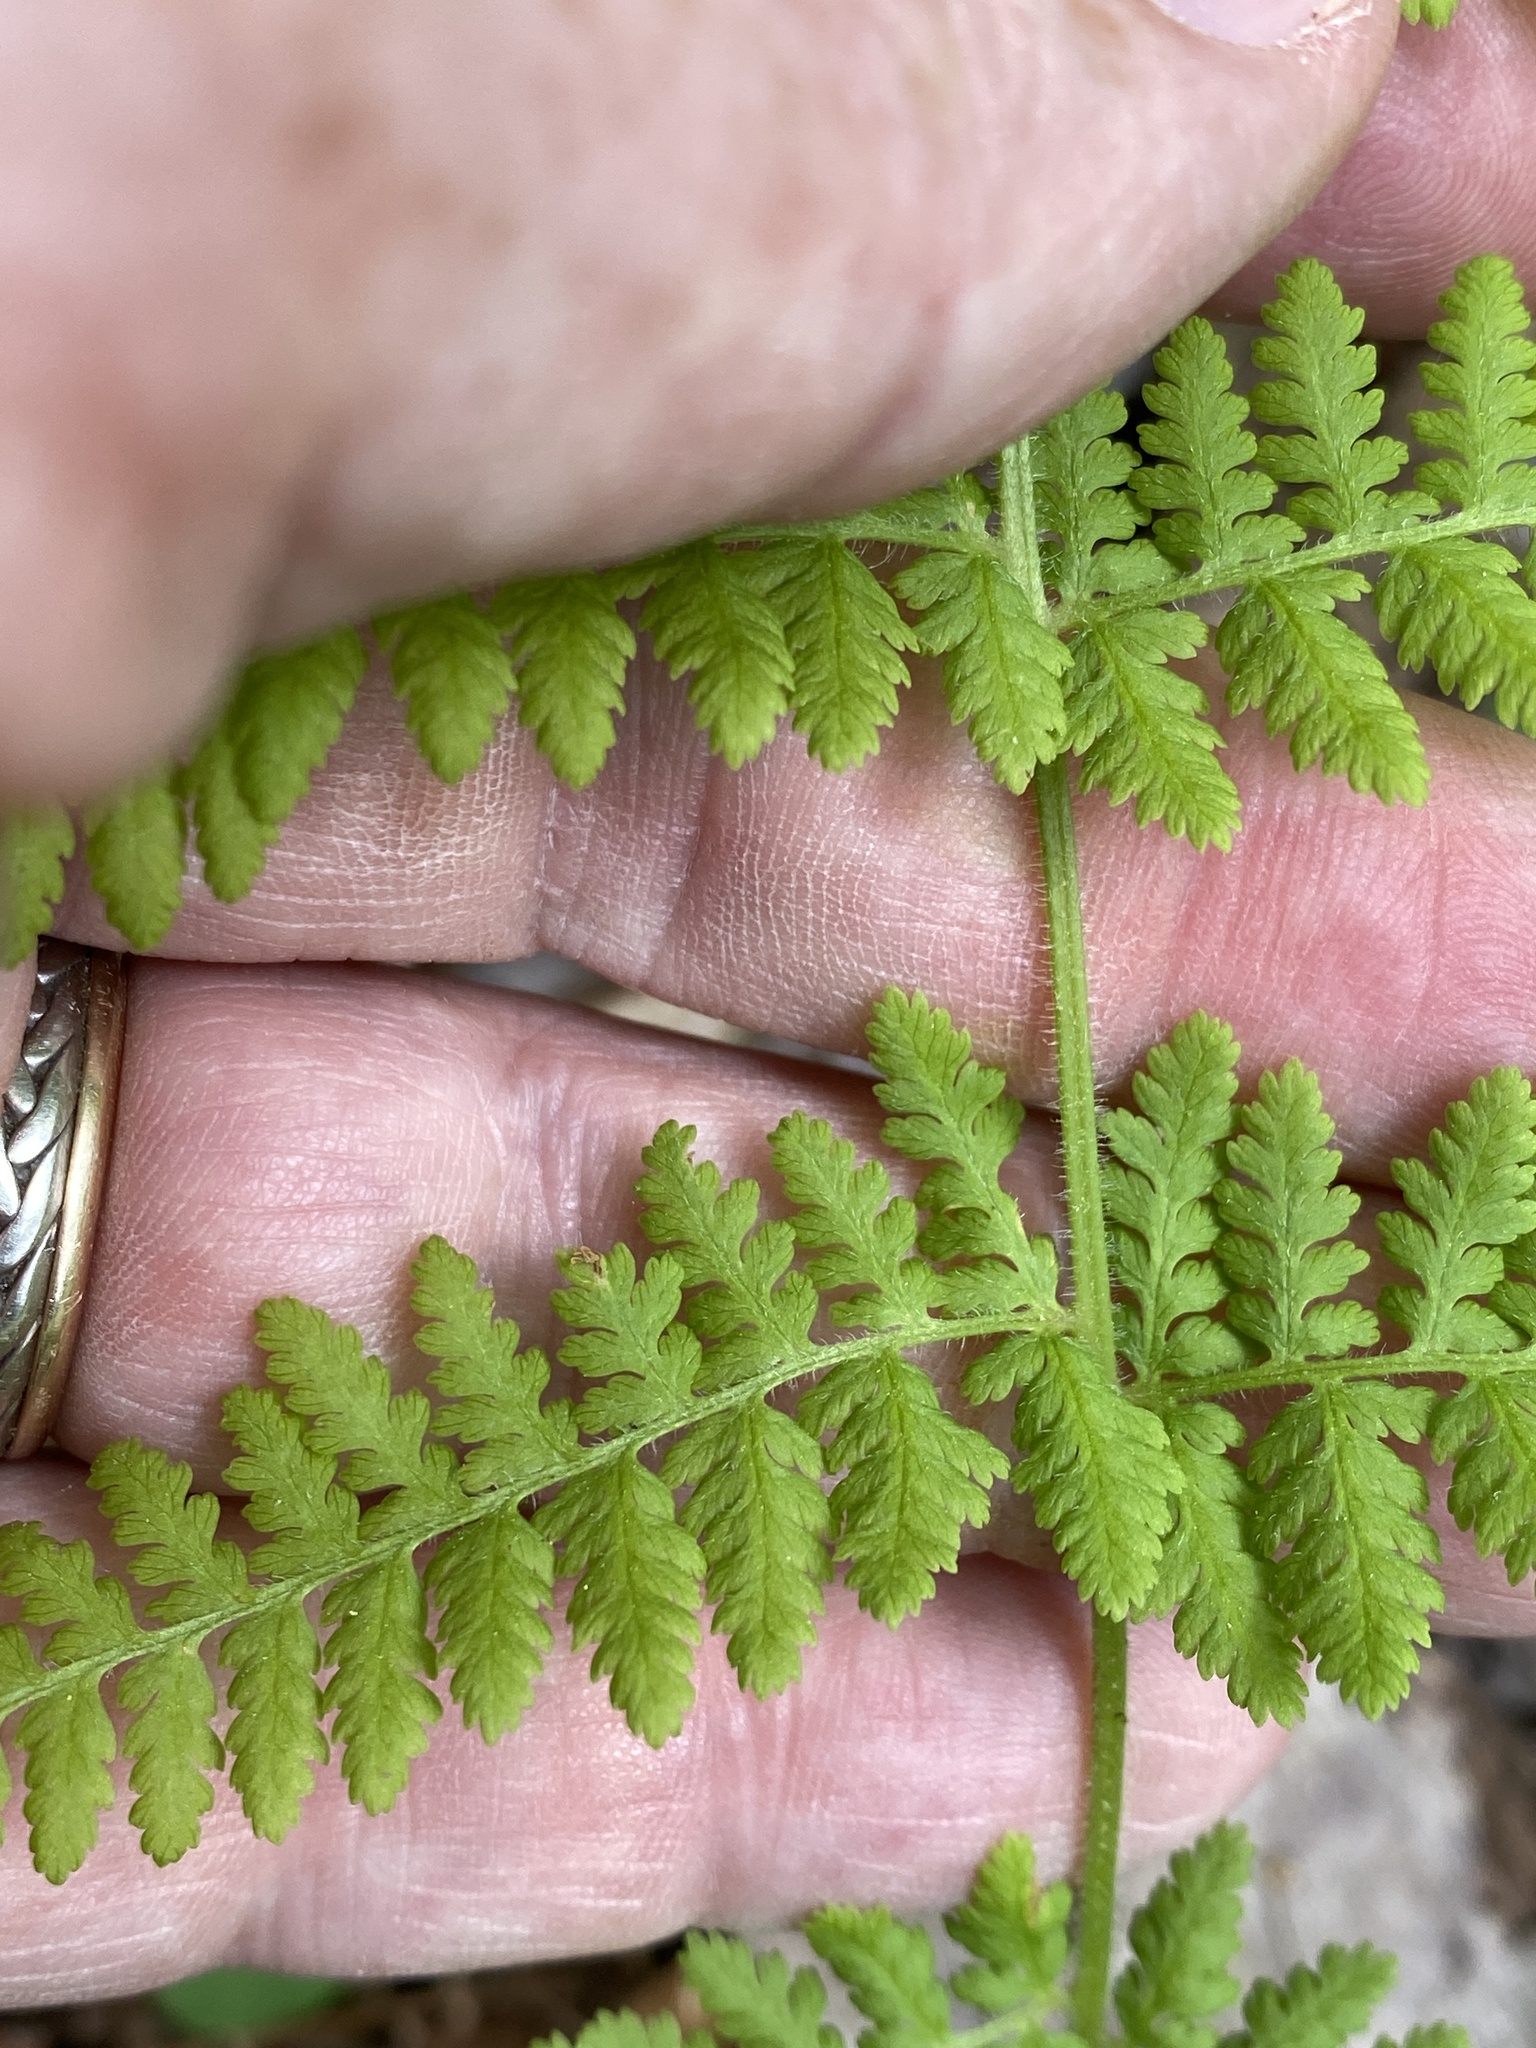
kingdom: Plantae
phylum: Tracheophyta
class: Polypodiopsida
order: Polypodiales
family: Dennstaedtiaceae
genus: Sitobolium
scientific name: Sitobolium punctilobum
